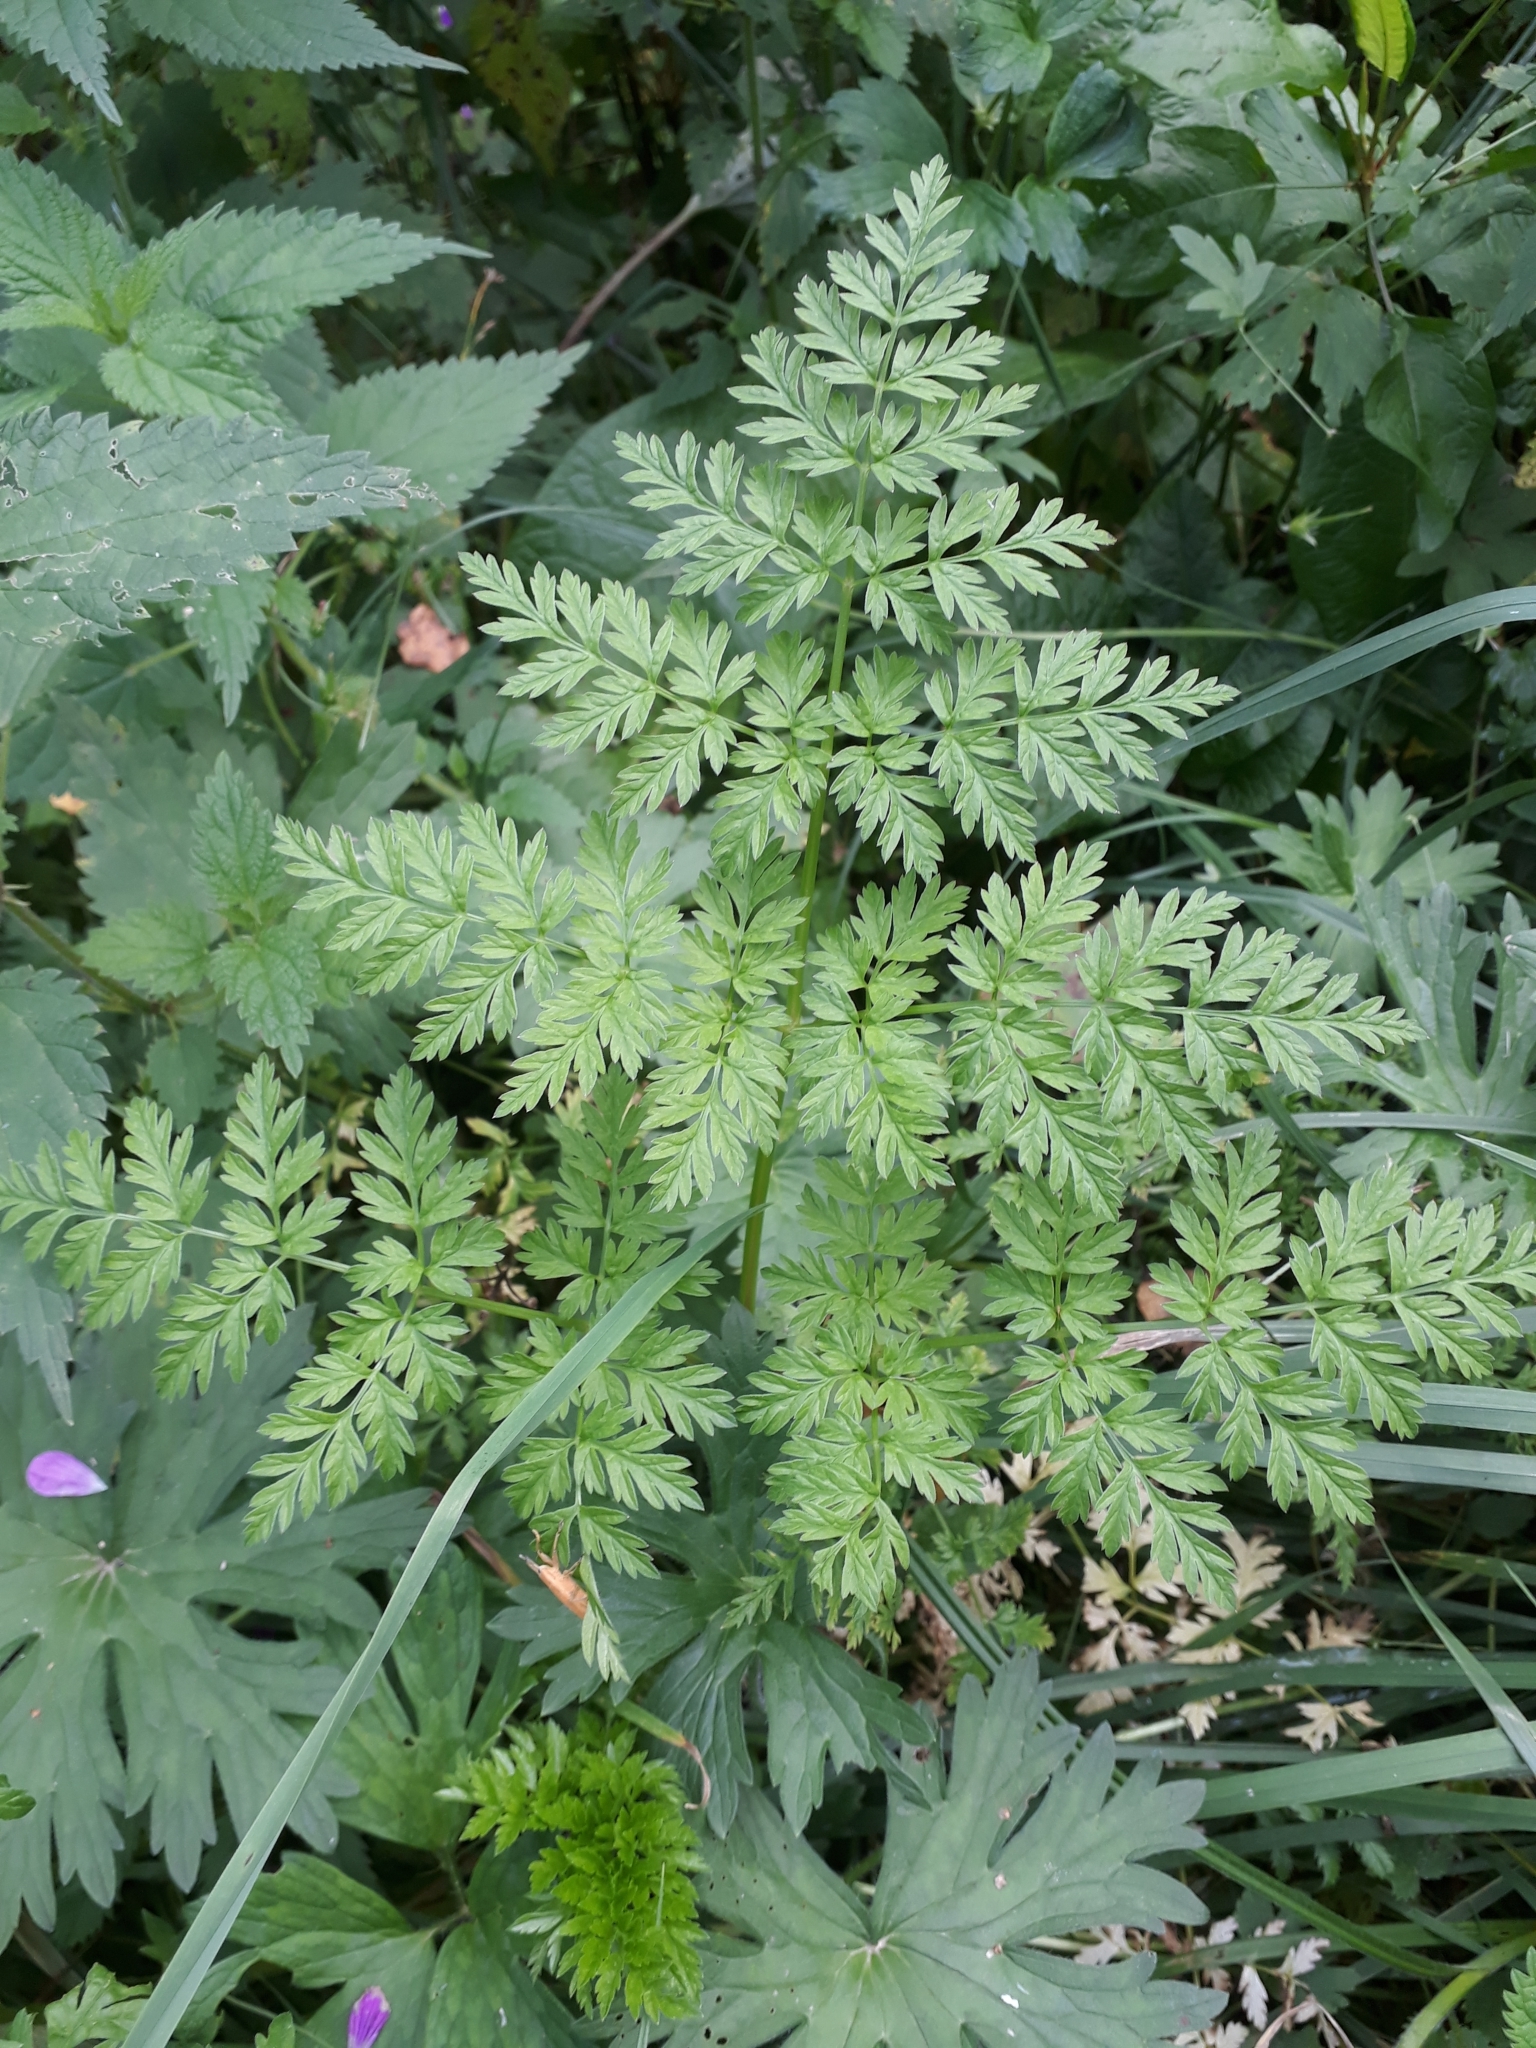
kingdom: Plantae
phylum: Tracheophyta
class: Magnoliopsida
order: Apiales
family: Apiaceae
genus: Anthriscus
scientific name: Anthriscus sylvestris
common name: Cow parsley
